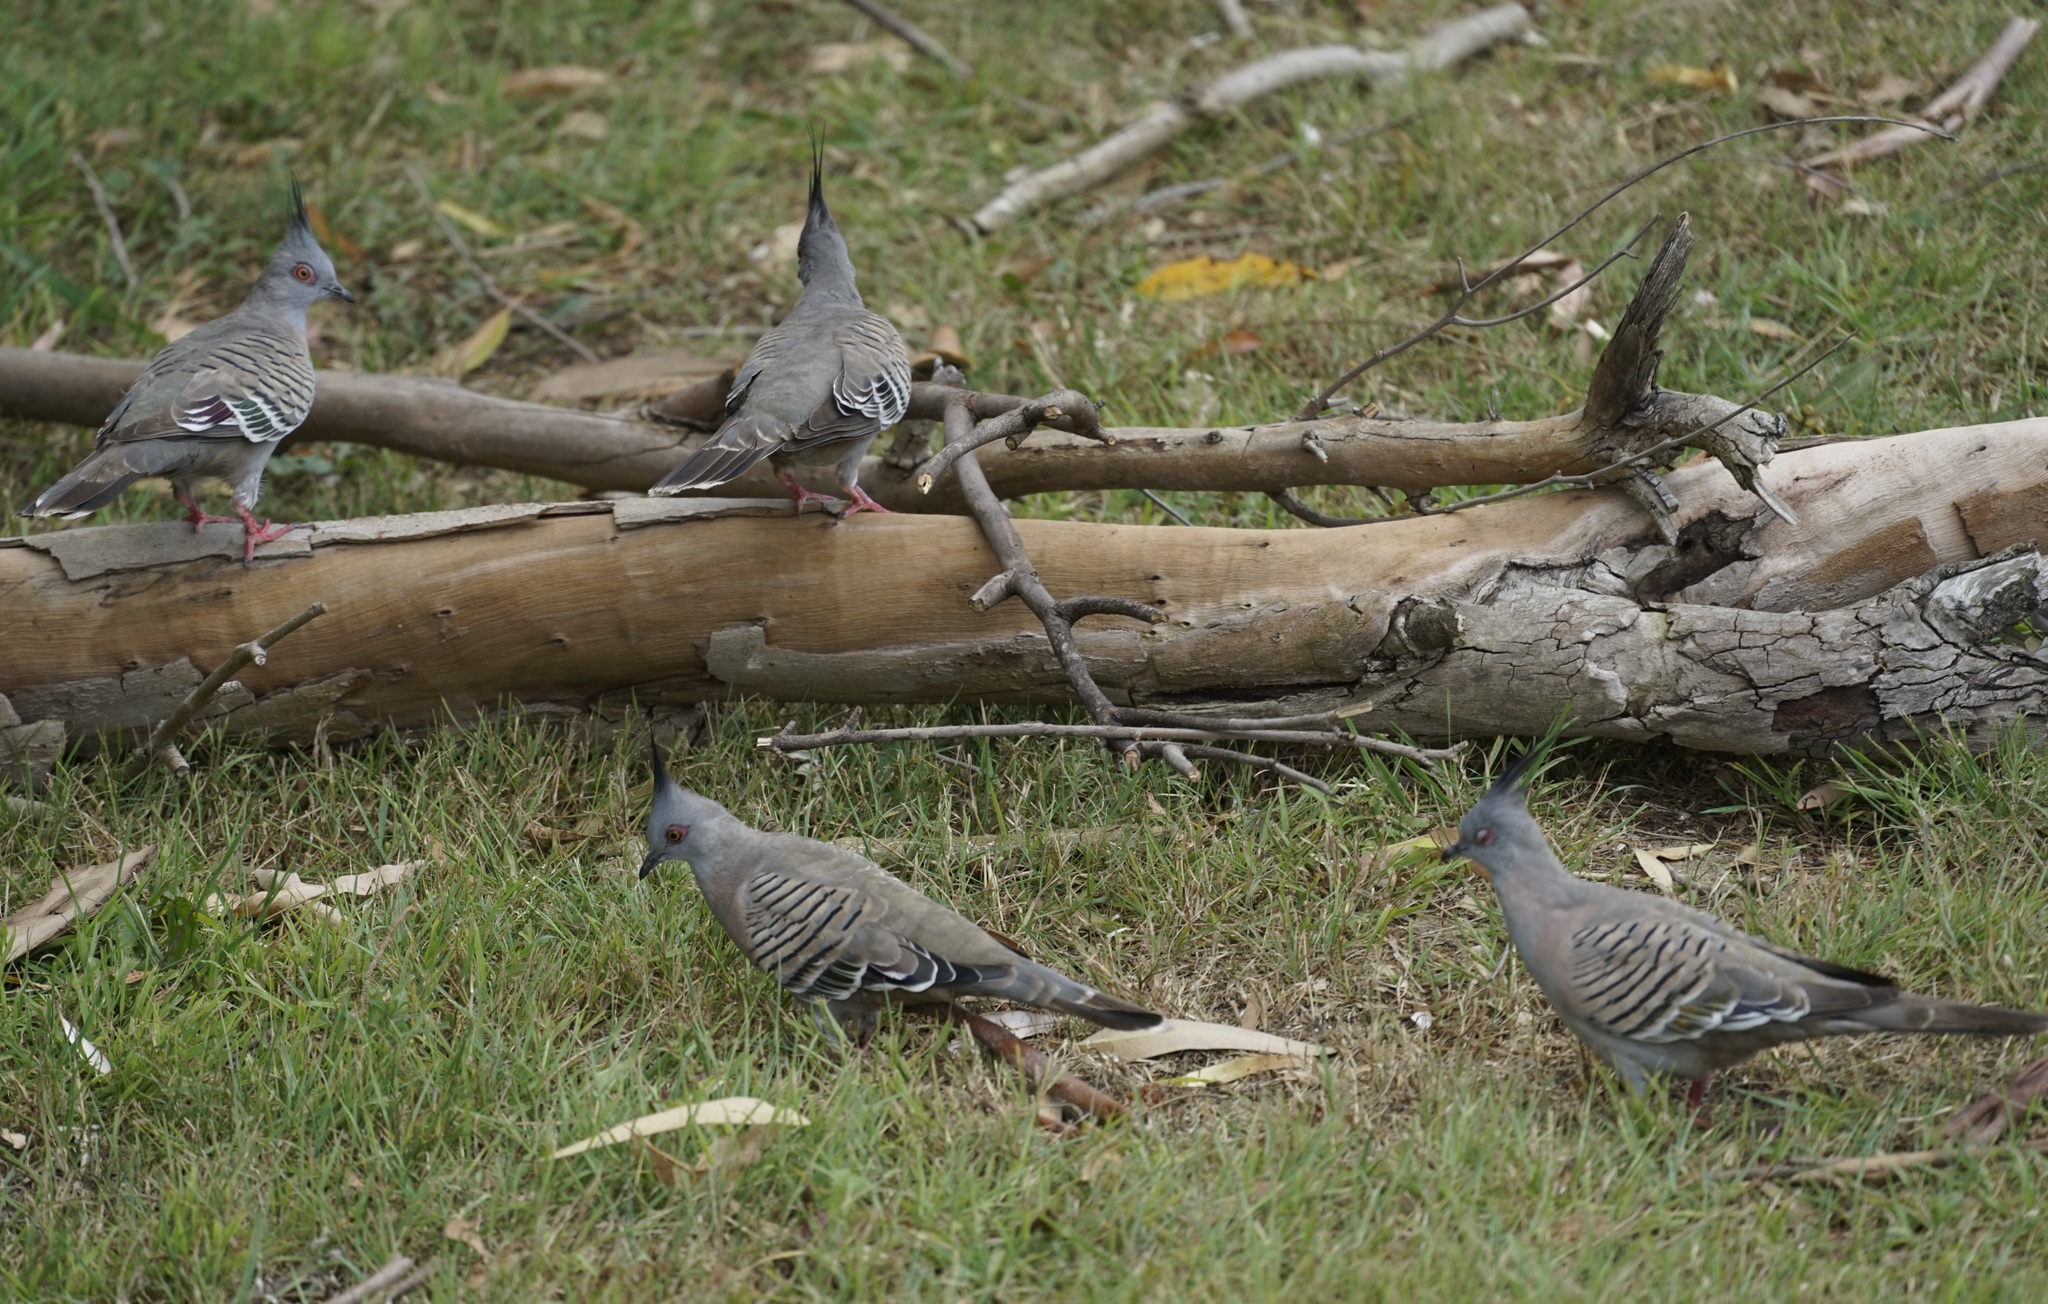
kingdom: Animalia
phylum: Chordata
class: Aves
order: Columbiformes
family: Columbidae
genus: Ocyphaps
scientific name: Ocyphaps lophotes
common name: Crested pigeon
